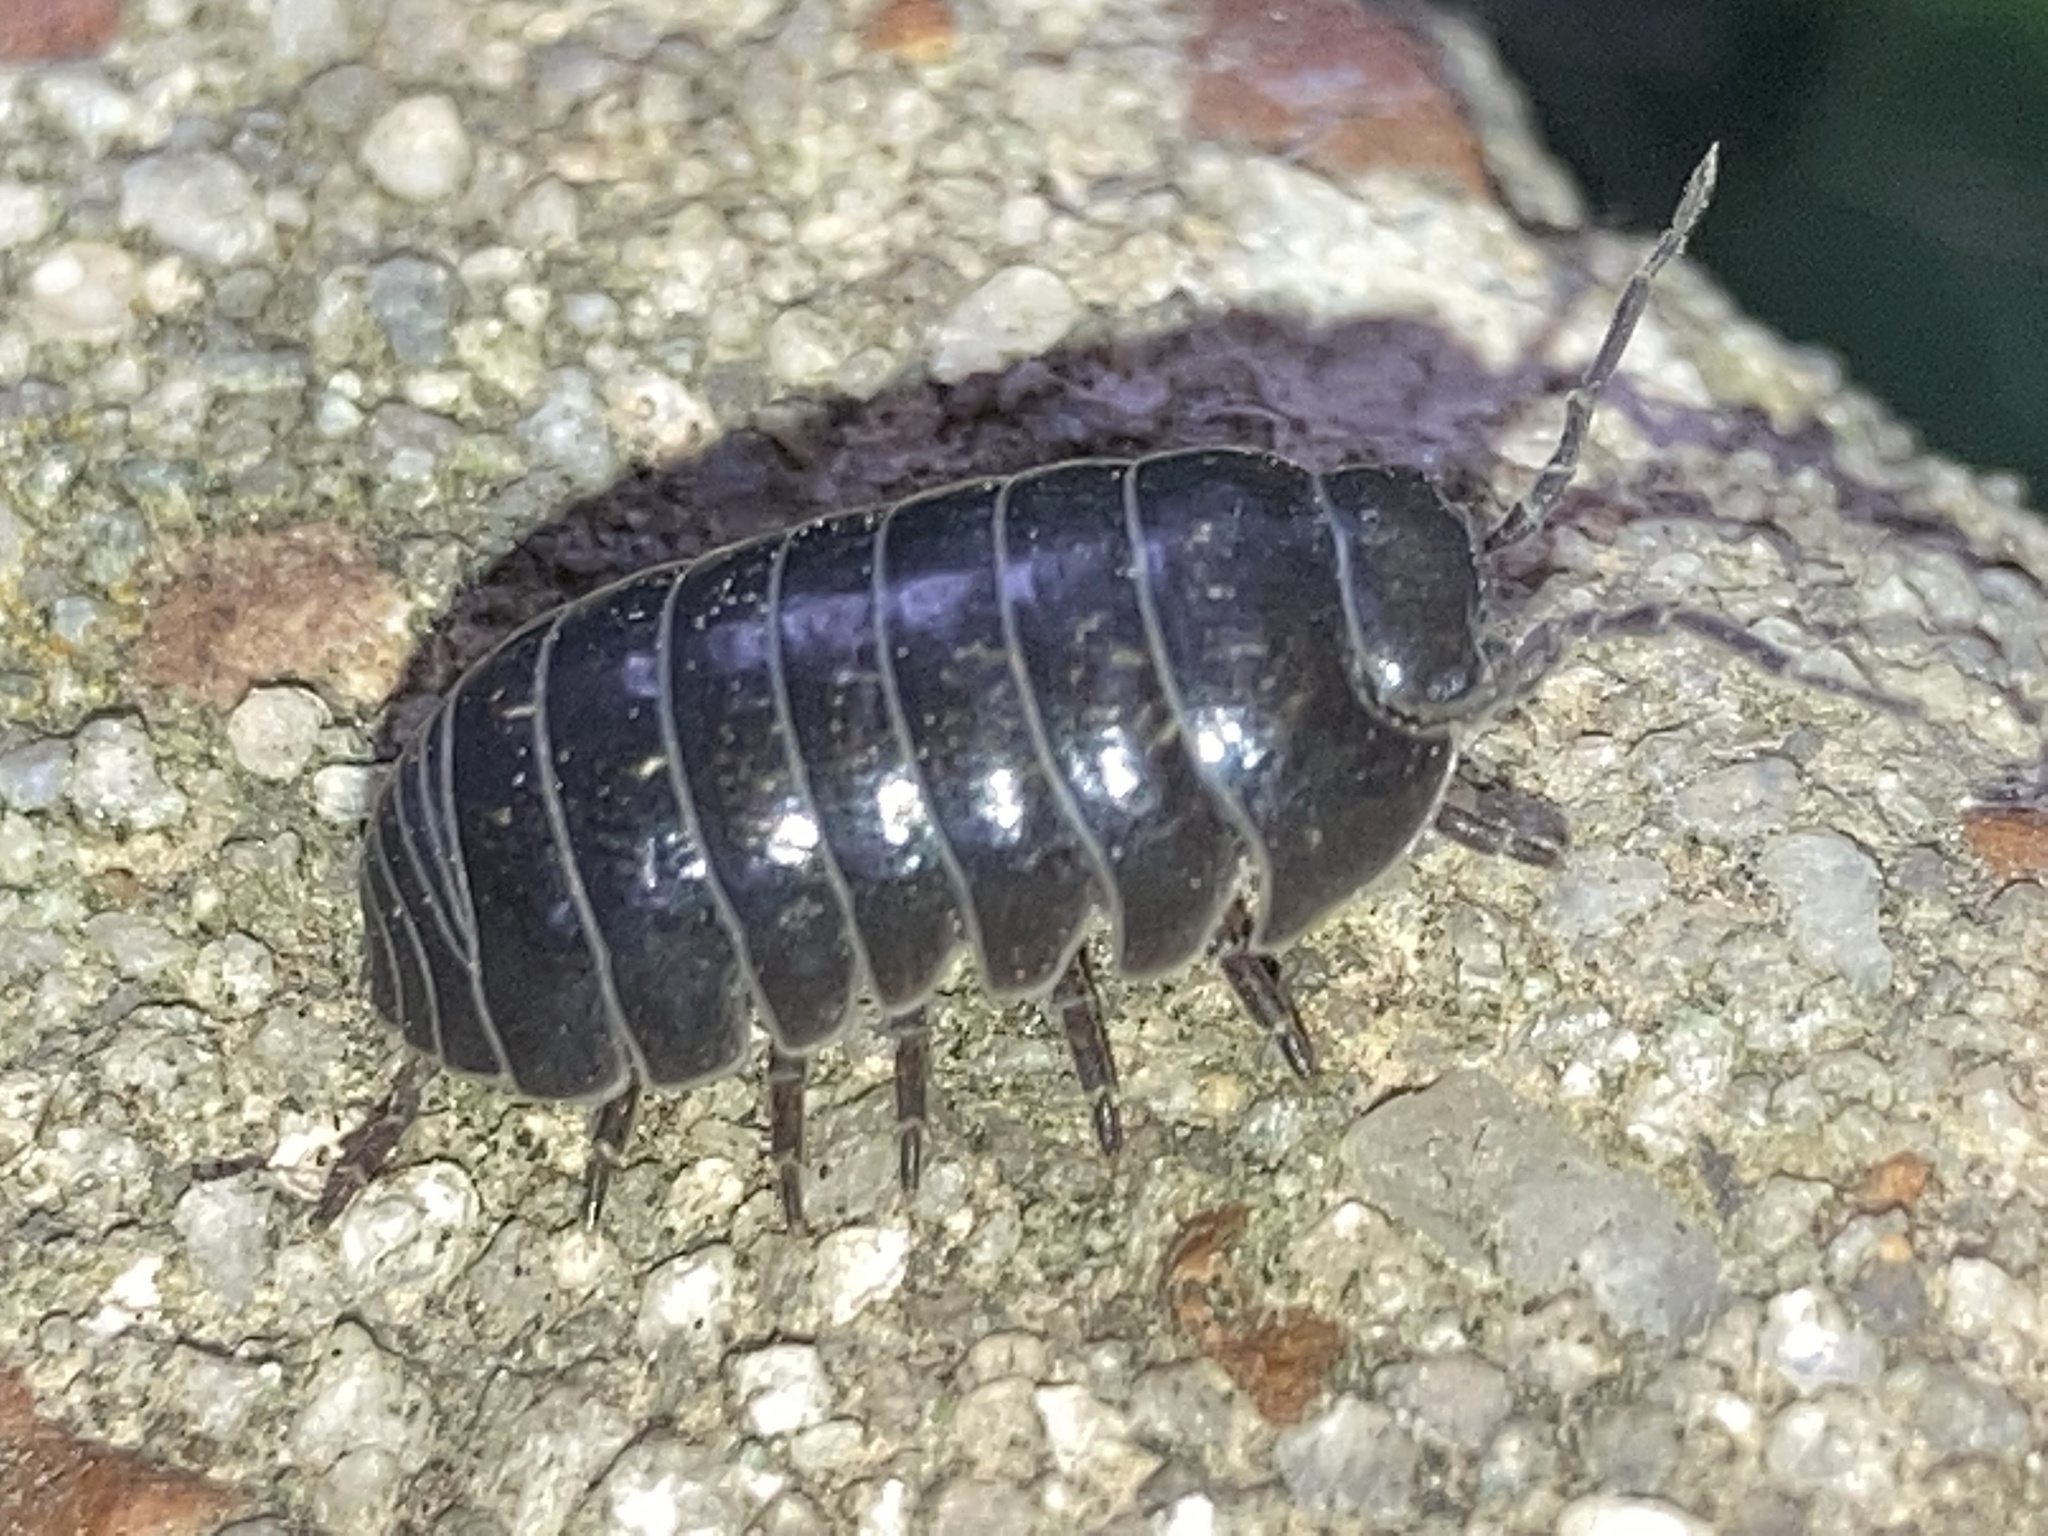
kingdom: Animalia
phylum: Arthropoda
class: Malacostraca
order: Isopoda
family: Armadillidiidae
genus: Armadillidium
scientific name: Armadillidium vulgare
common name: Common pill woodlouse
